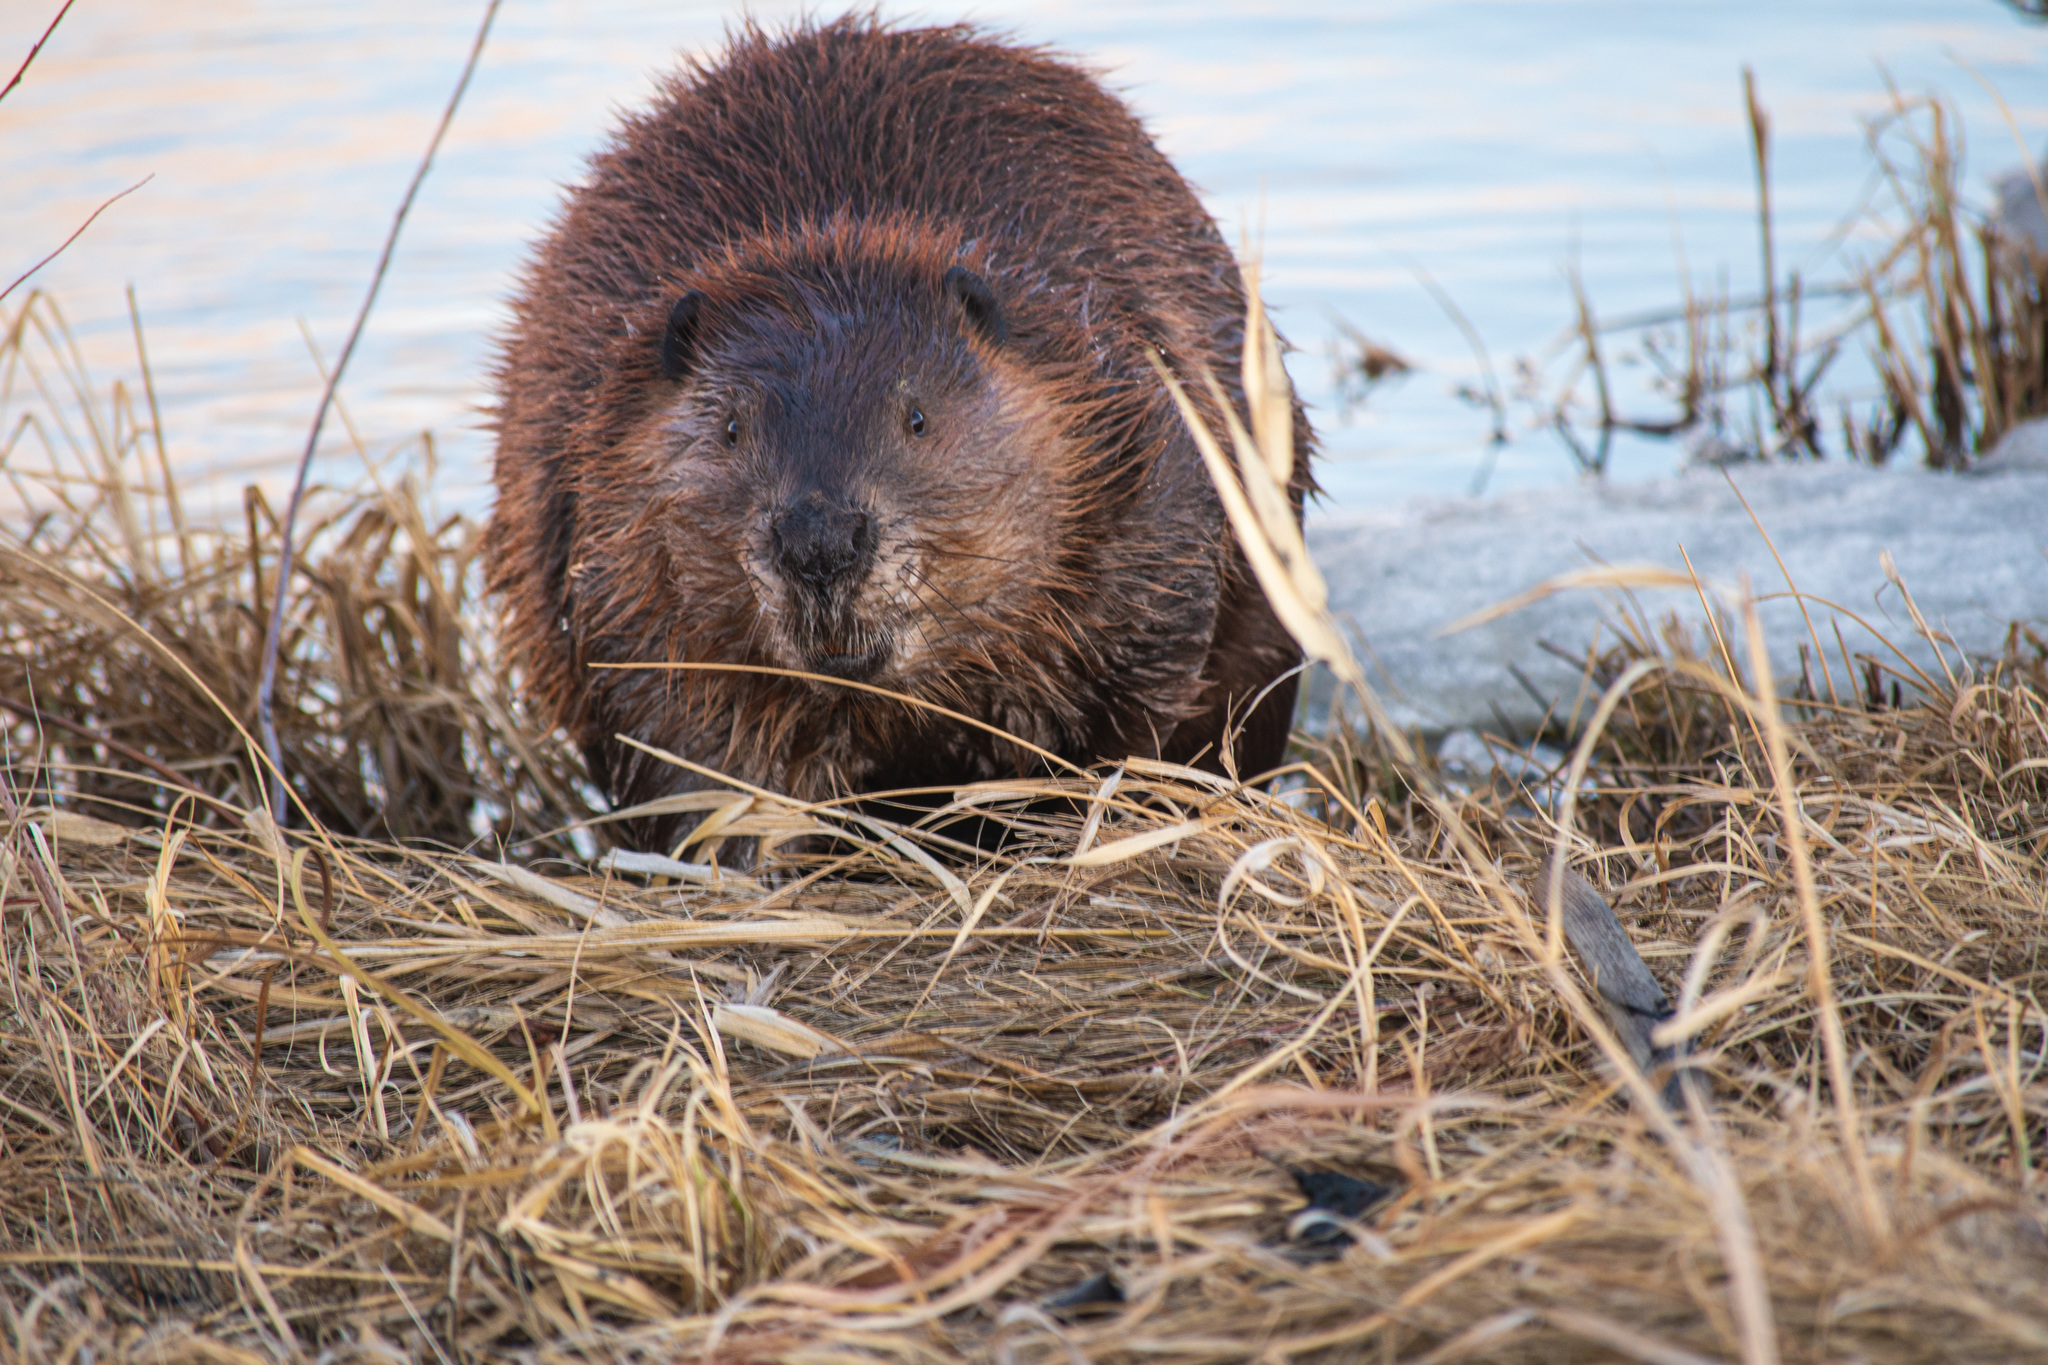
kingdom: Animalia
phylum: Chordata
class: Mammalia
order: Rodentia
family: Castoridae
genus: Castor
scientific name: Castor canadensis
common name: American beaver
